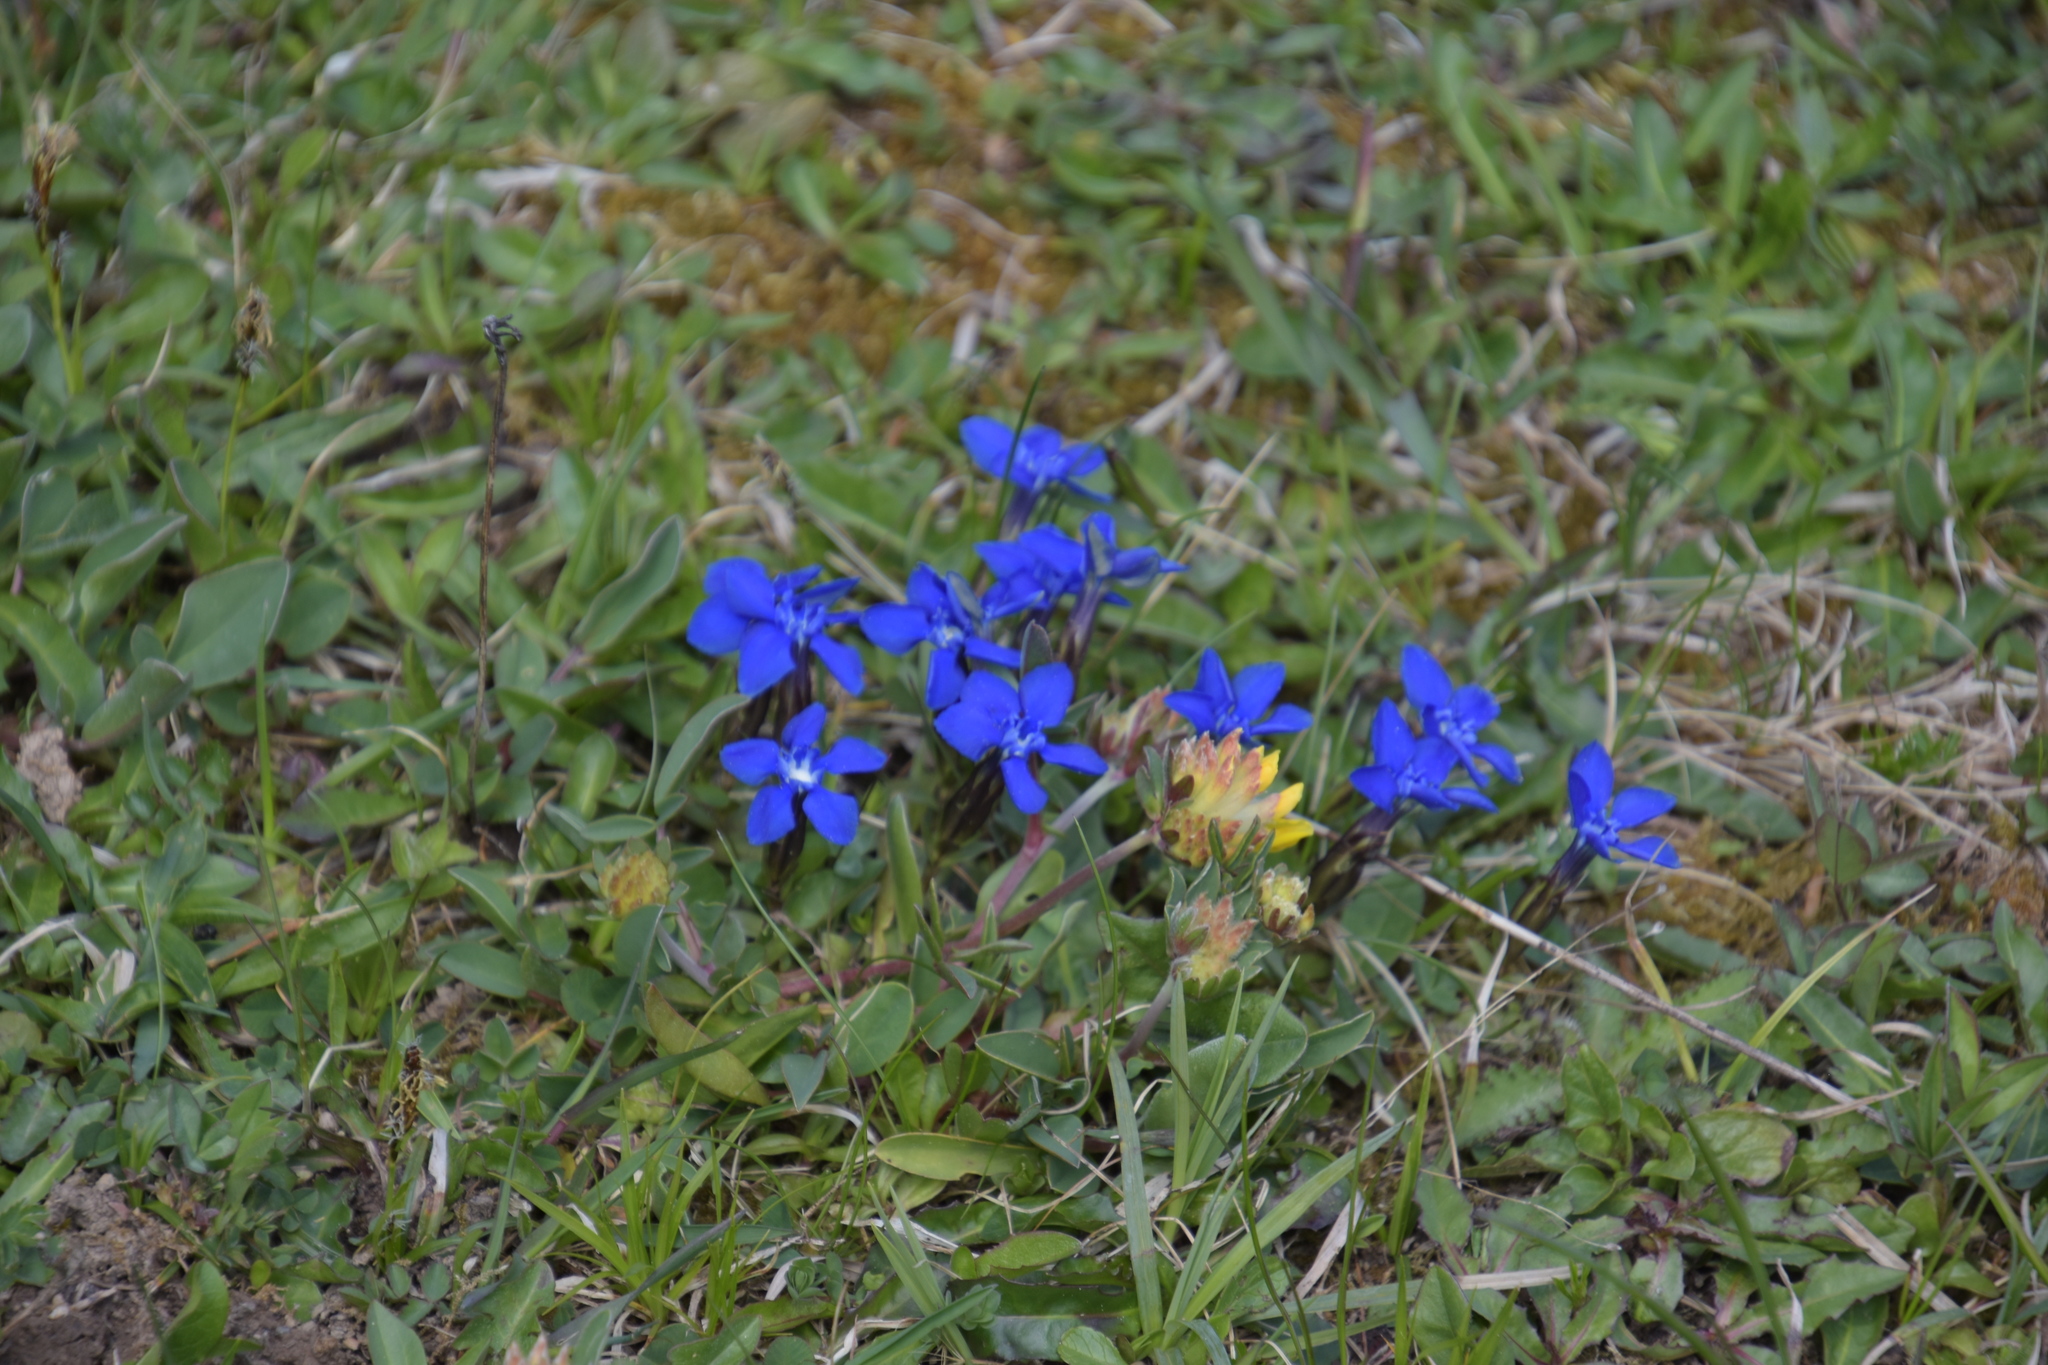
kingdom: Plantae
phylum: Tracheophyta
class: Magnoliopsida
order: Gentianales
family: Gentianaceae
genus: Gentiana
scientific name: Gentiana verna
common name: Spring gentian
